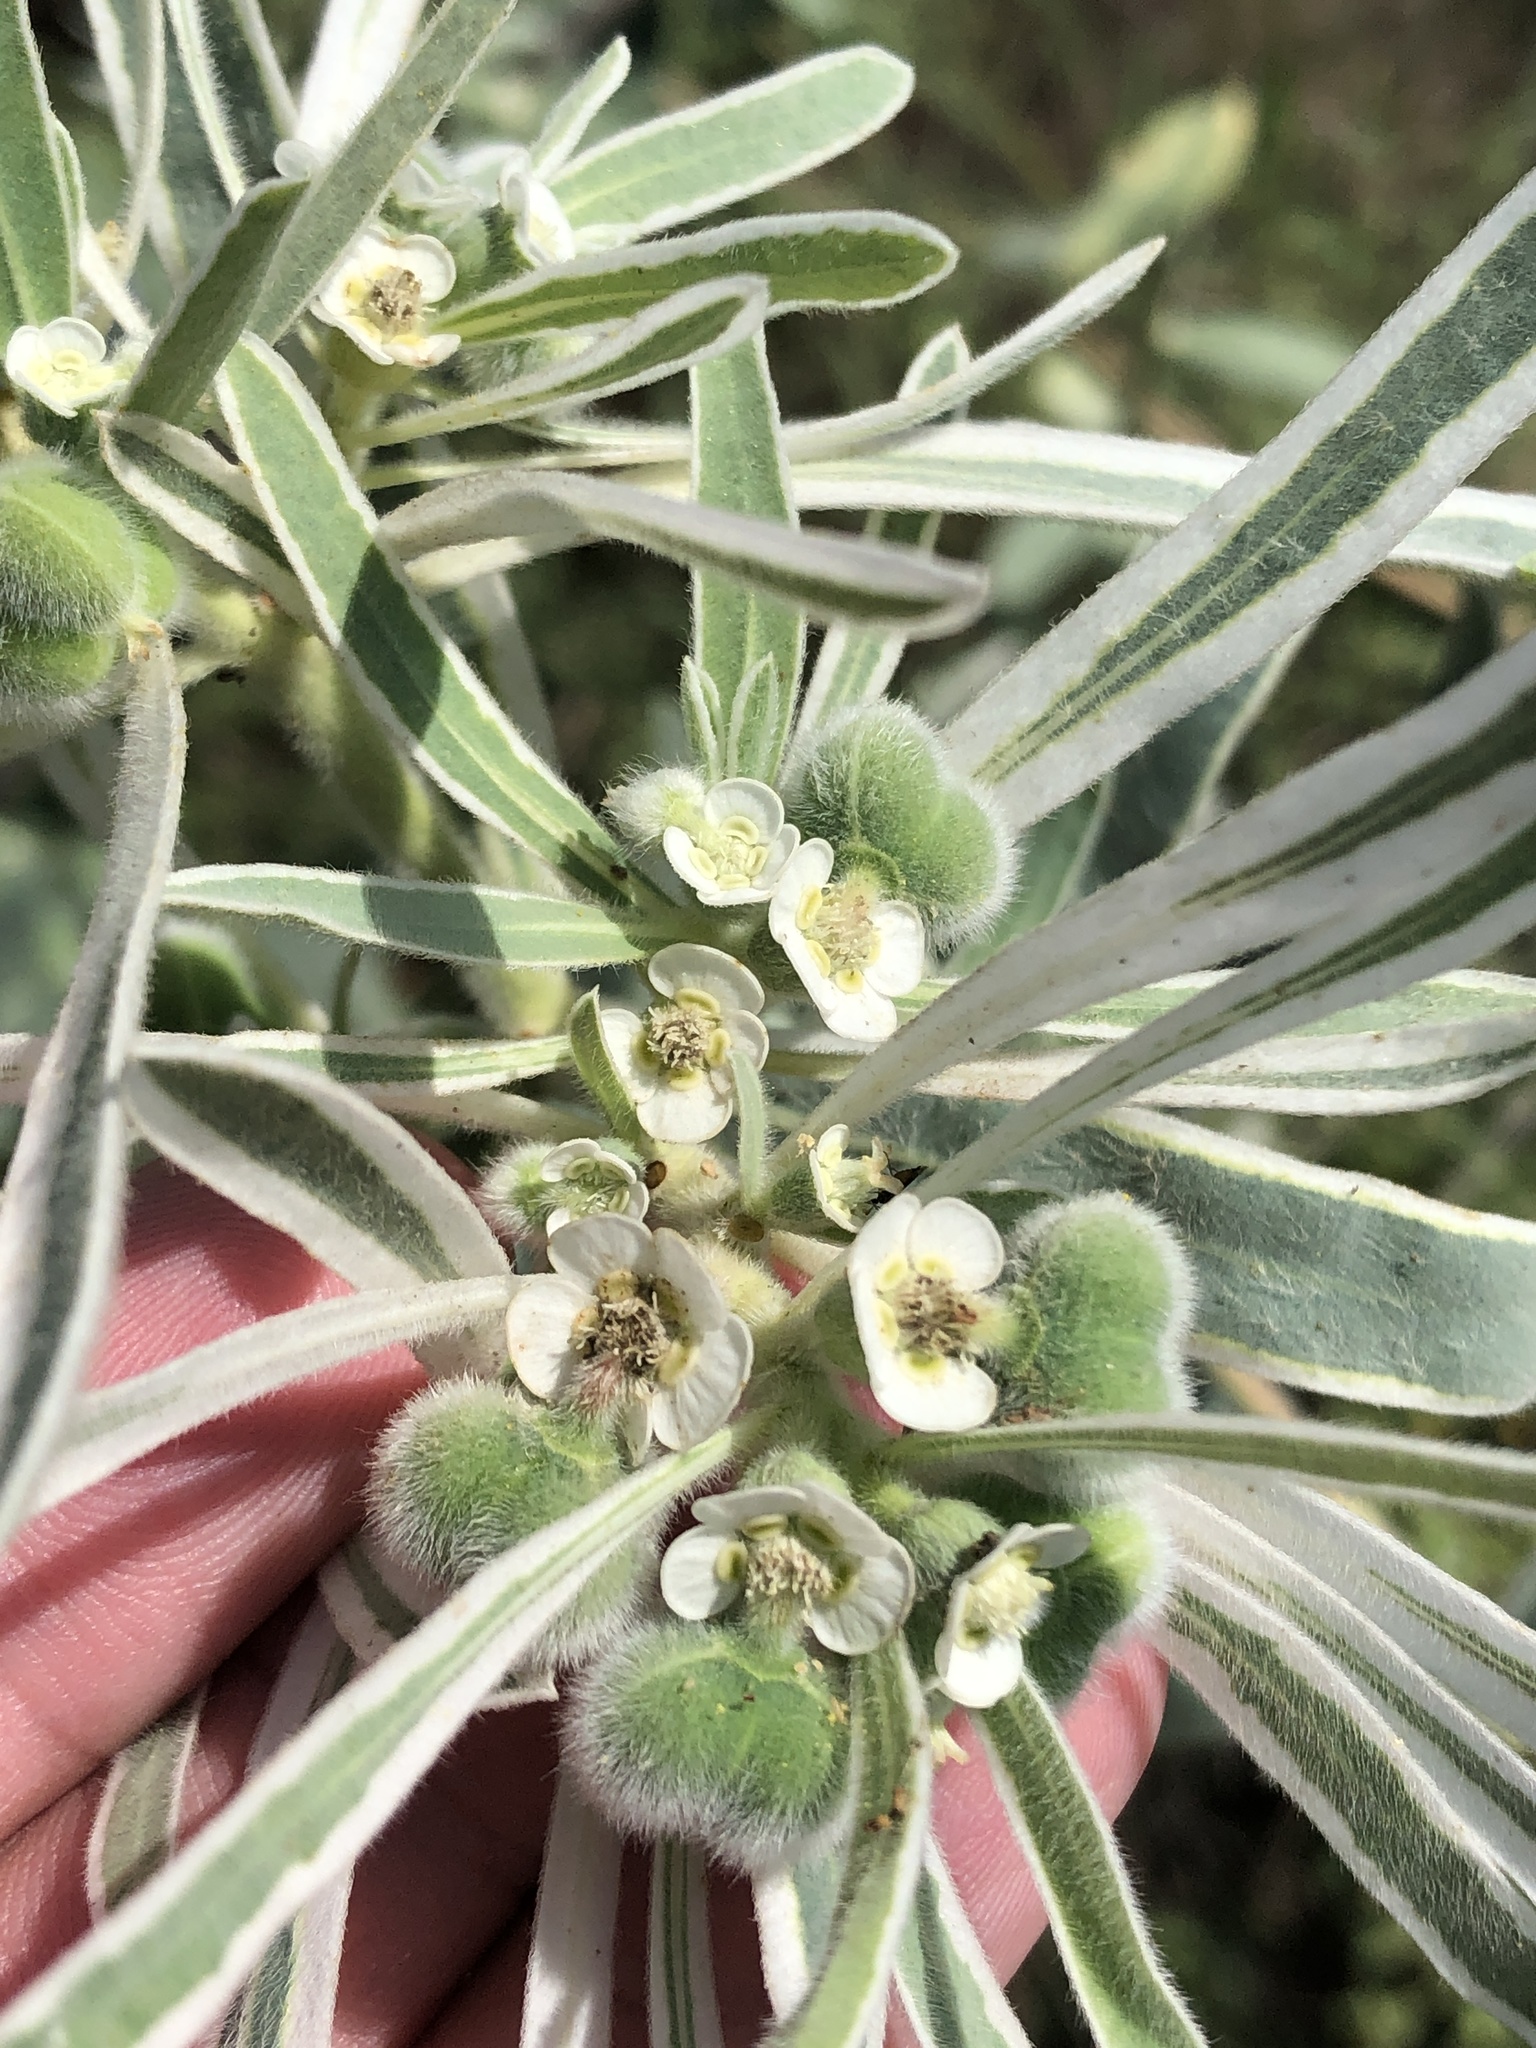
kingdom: Plantae
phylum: Tracheophyta
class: Magnoliopsida
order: Malpighiales
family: Euphorbiaceae
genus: Euphorbia
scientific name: Euphorbia bicolor
